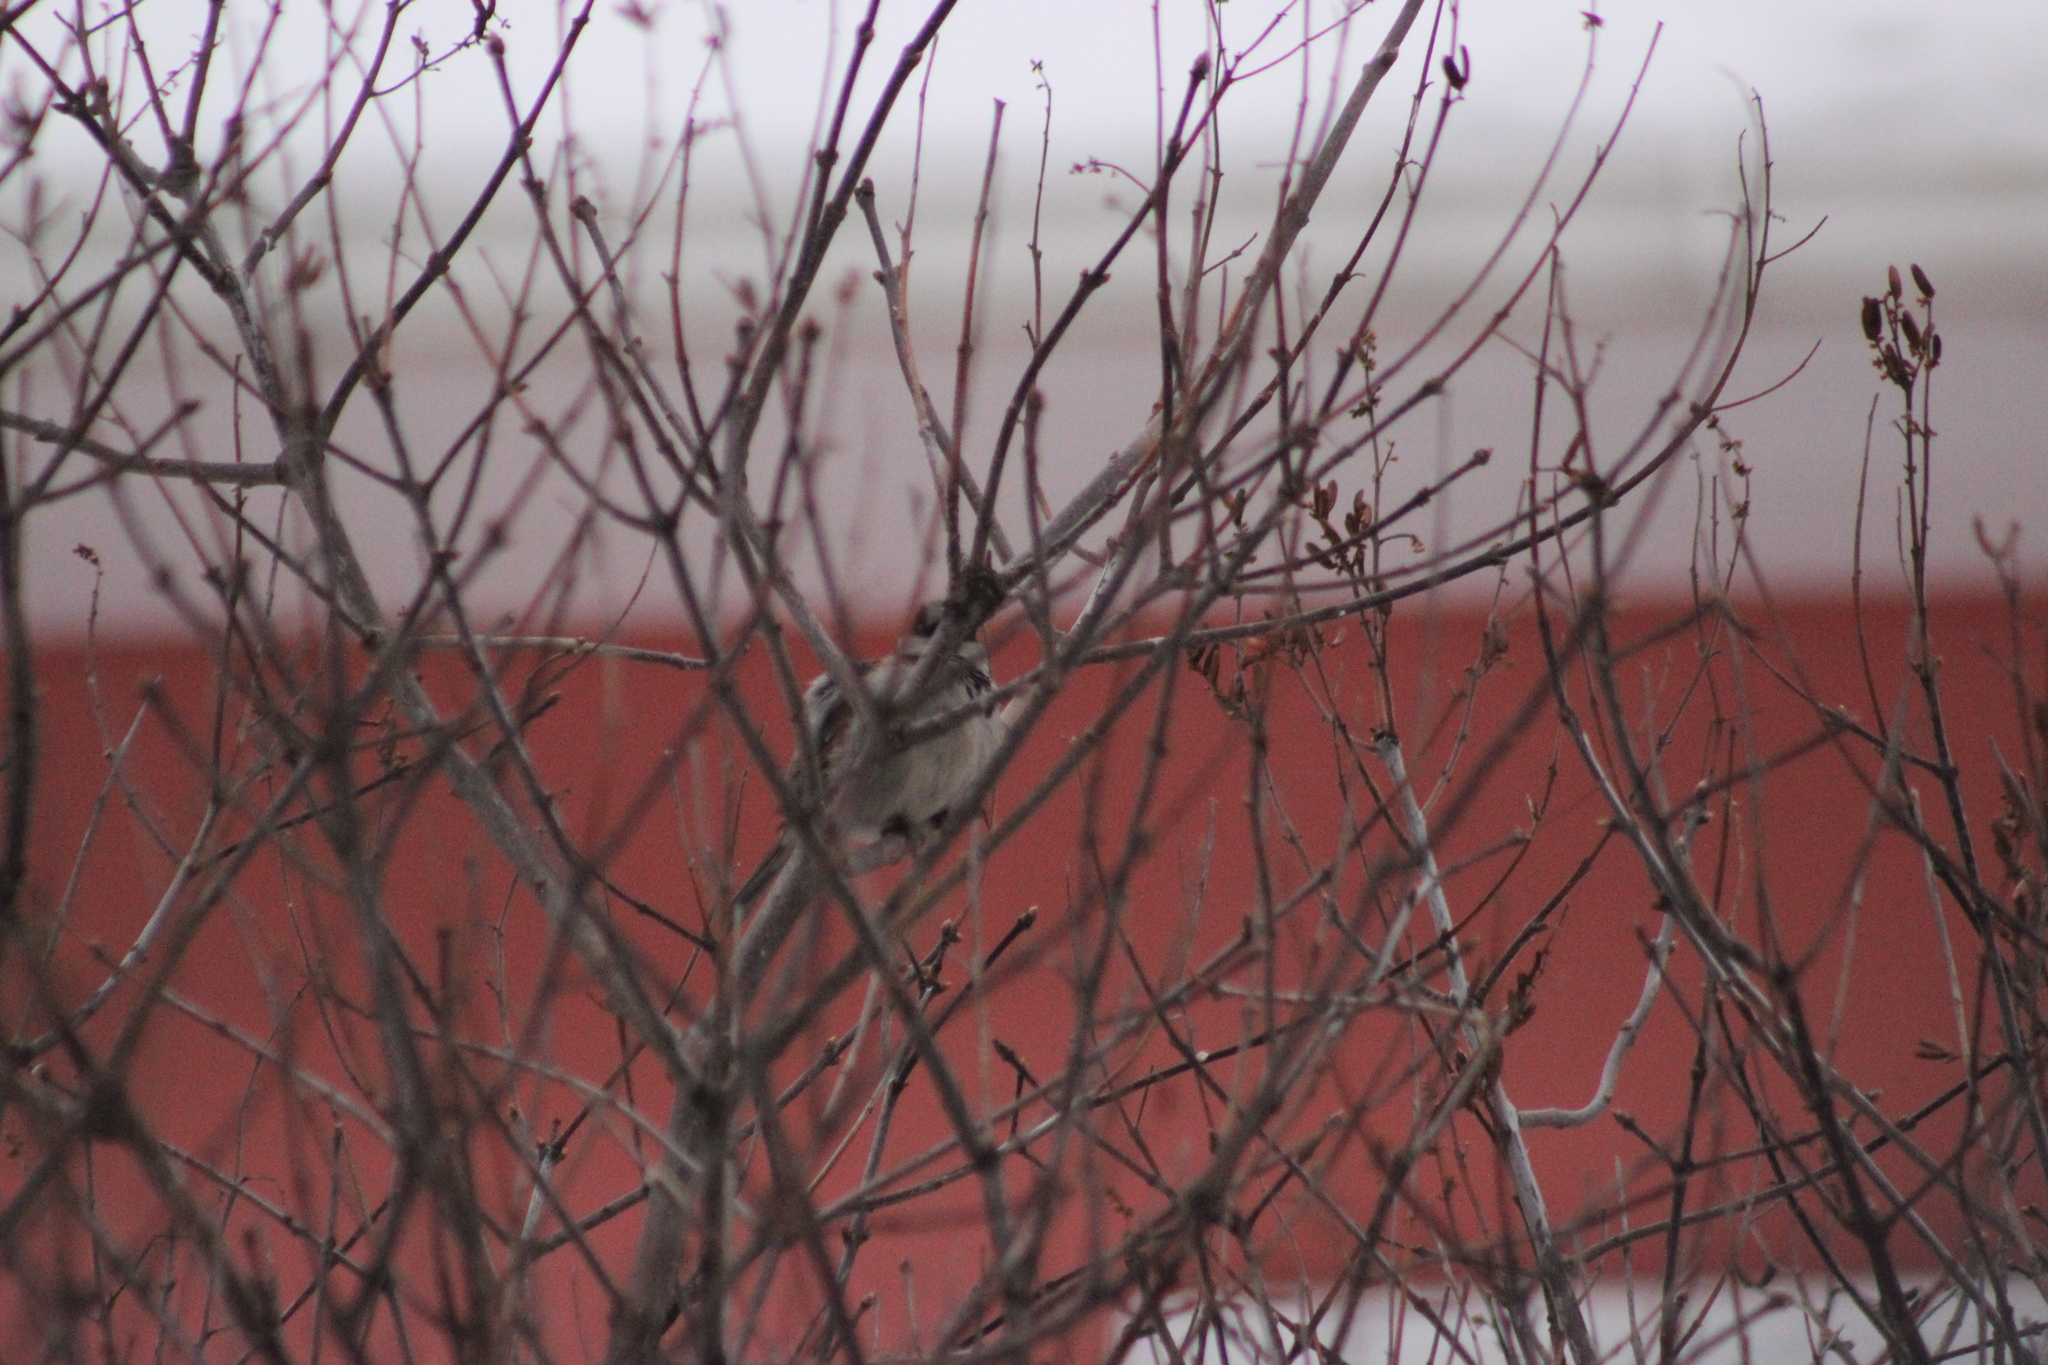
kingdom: Animalia
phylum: Chordata
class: Aves
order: Passeriformes
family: Passeridae
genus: Passer
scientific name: Passer domesticus
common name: House sparrow
